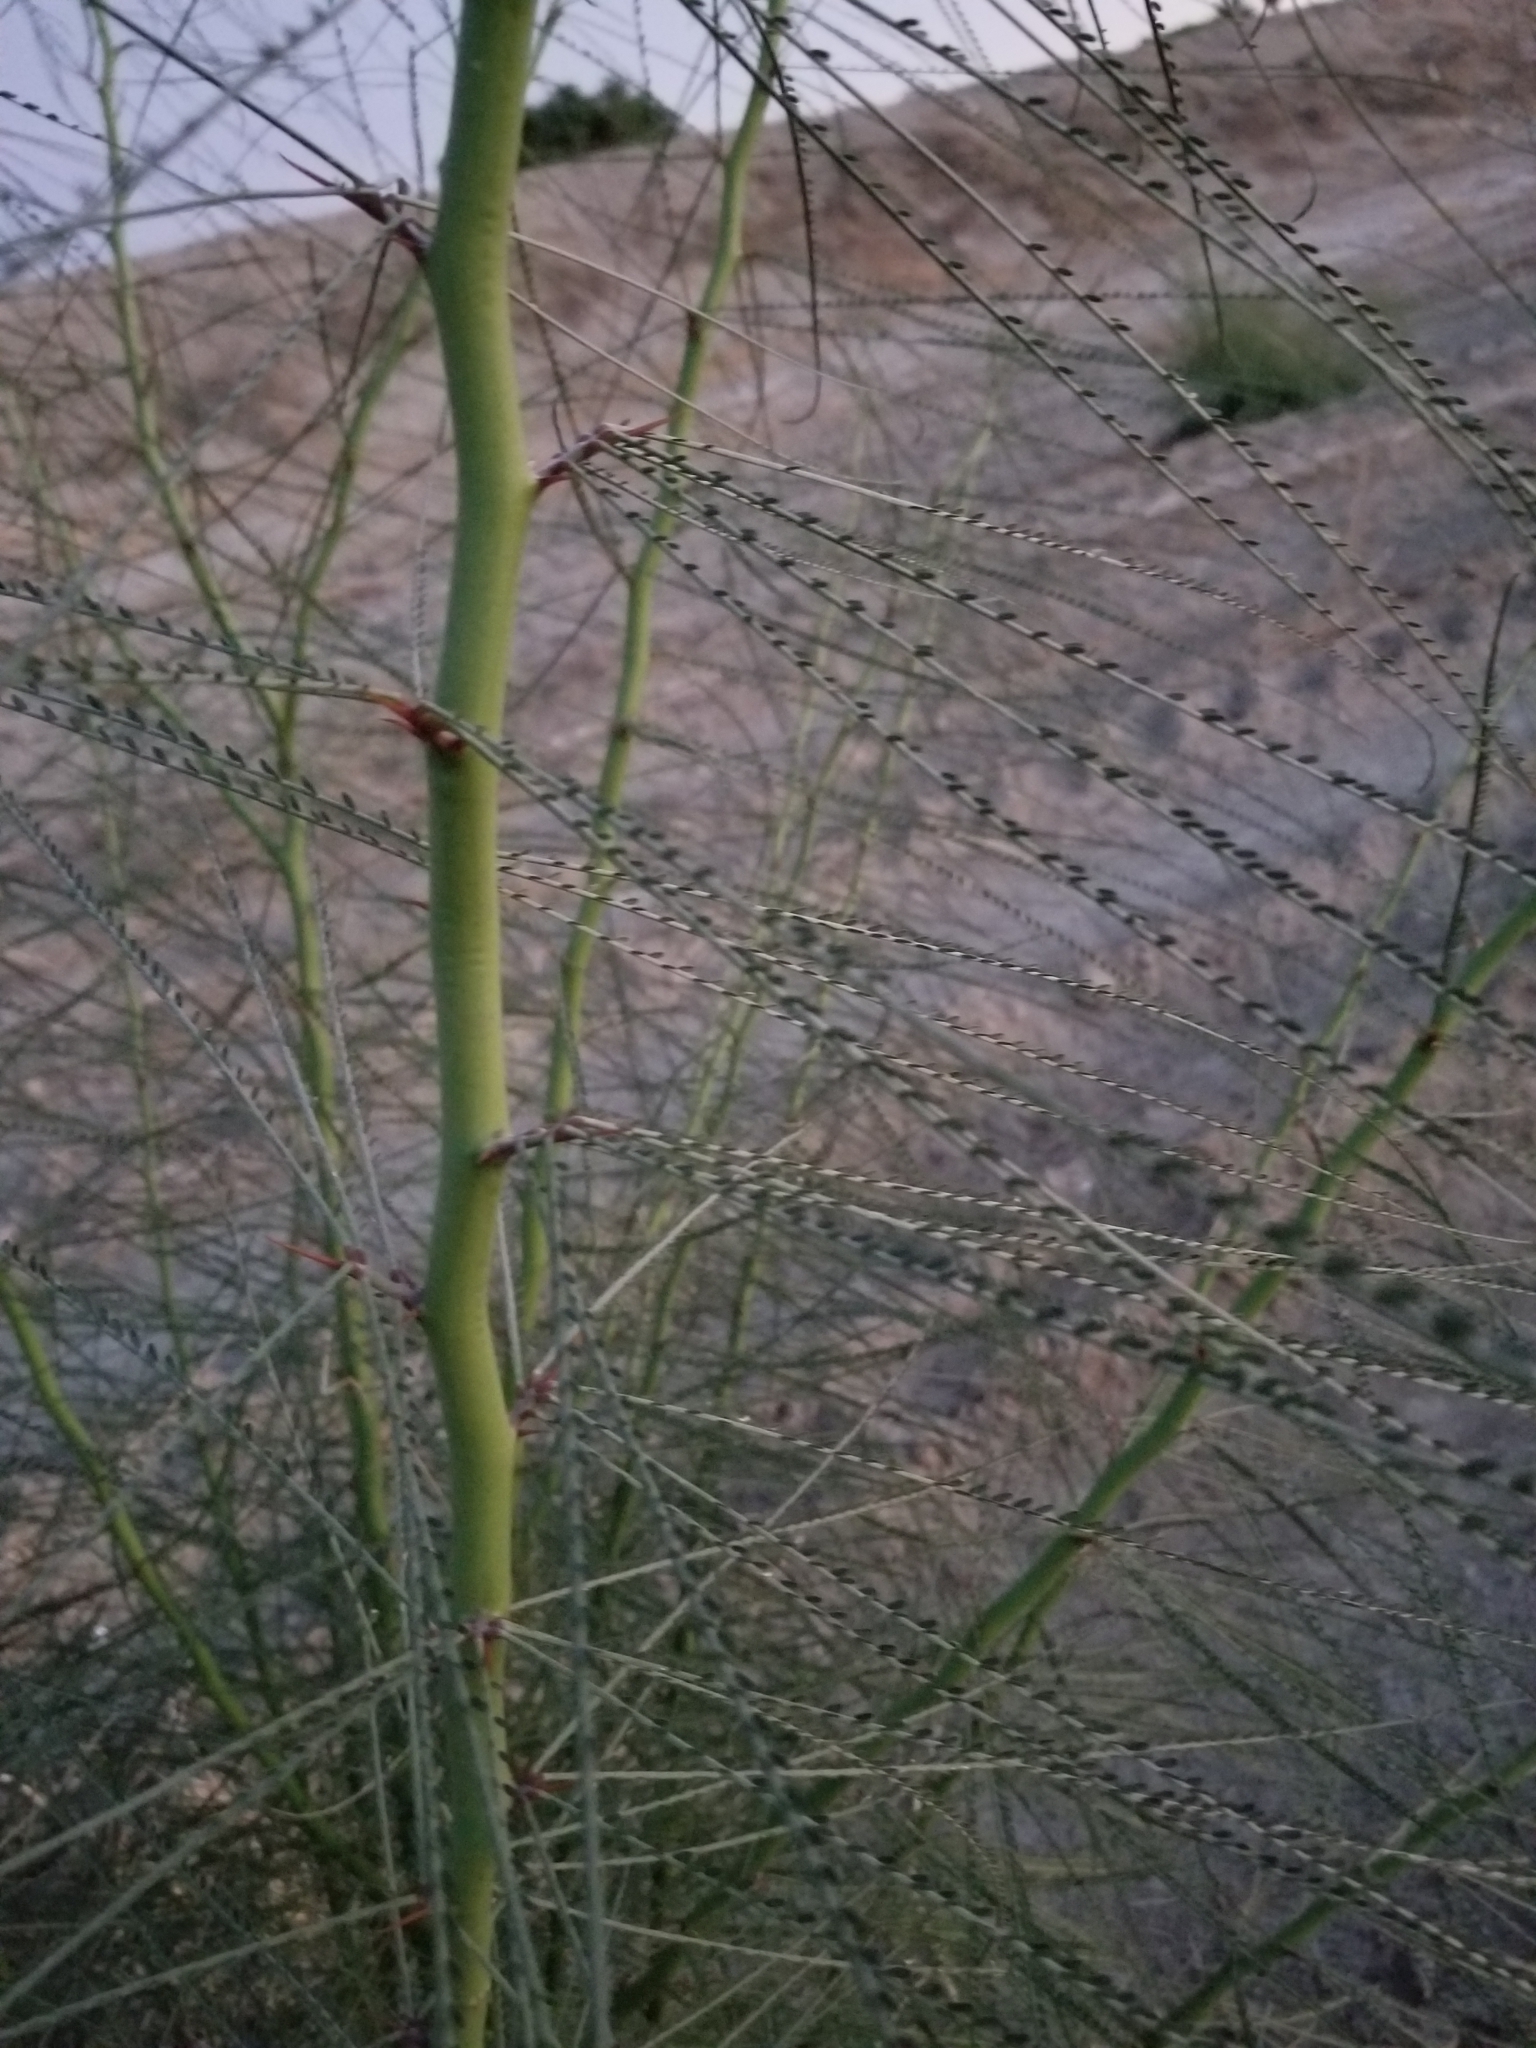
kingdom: Plantae
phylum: Tracheophyta
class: Magnoliopsida
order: Fabales
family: Fabaceae
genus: Parkinsonia
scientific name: Parkinsonia aculeata
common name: Jerusalem thorn
